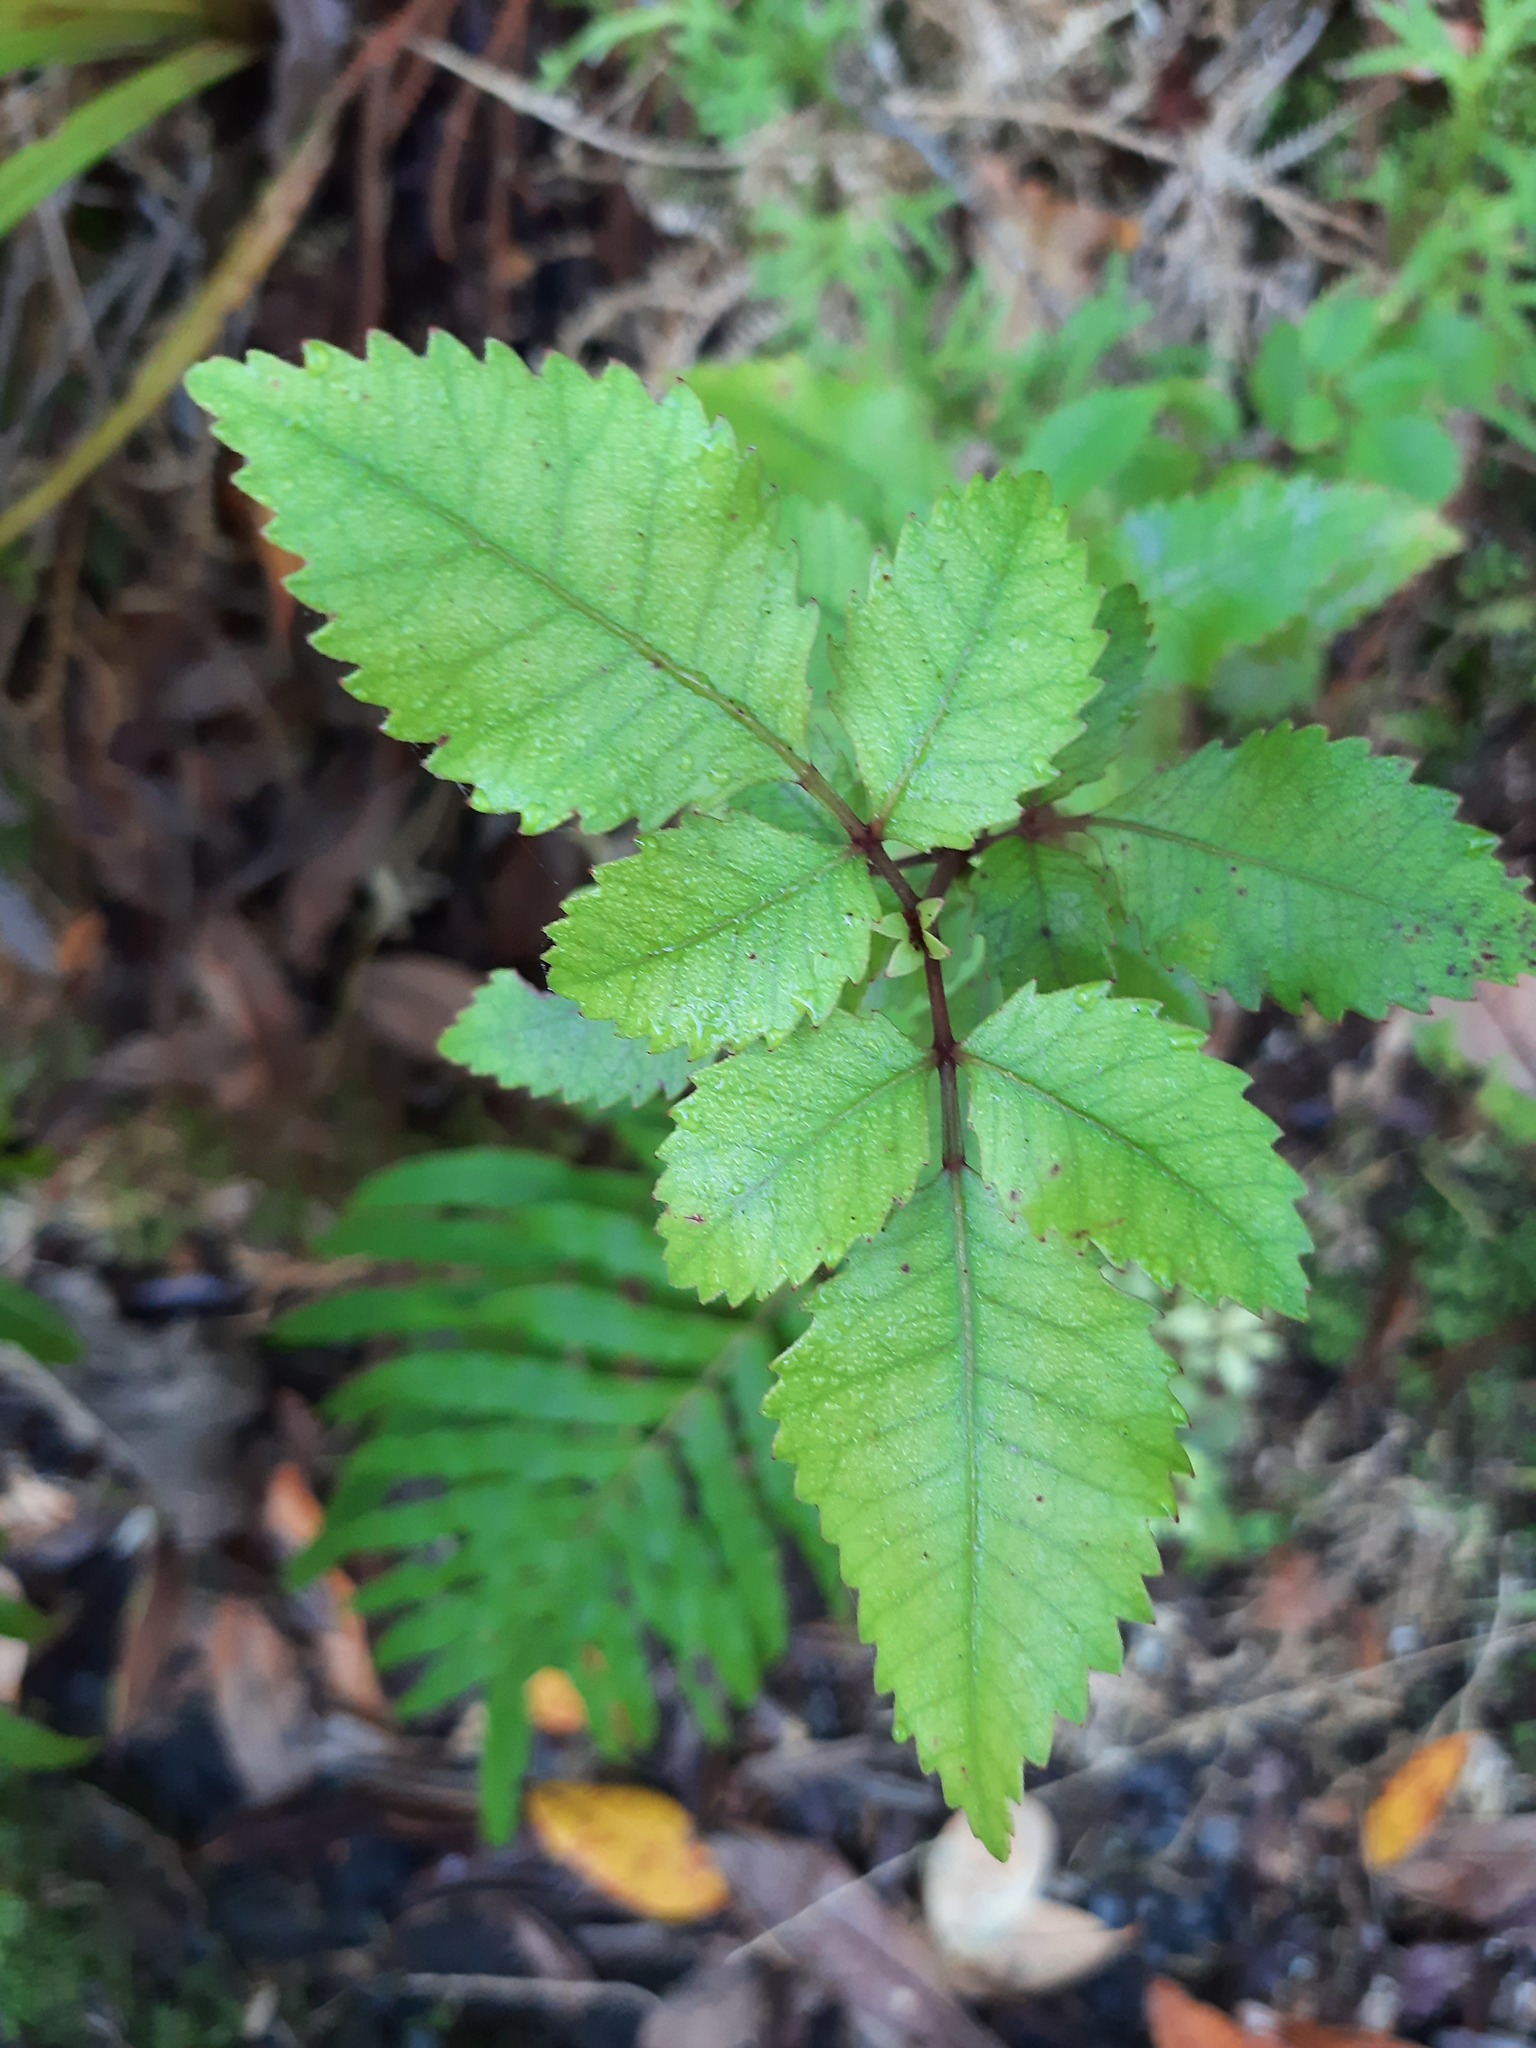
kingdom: Plantae
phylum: Tracheophyta
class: Magnoliopsida
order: Oxalidales
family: Cunoniaceae
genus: Pterophylla
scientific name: Pterophylla racemosa
